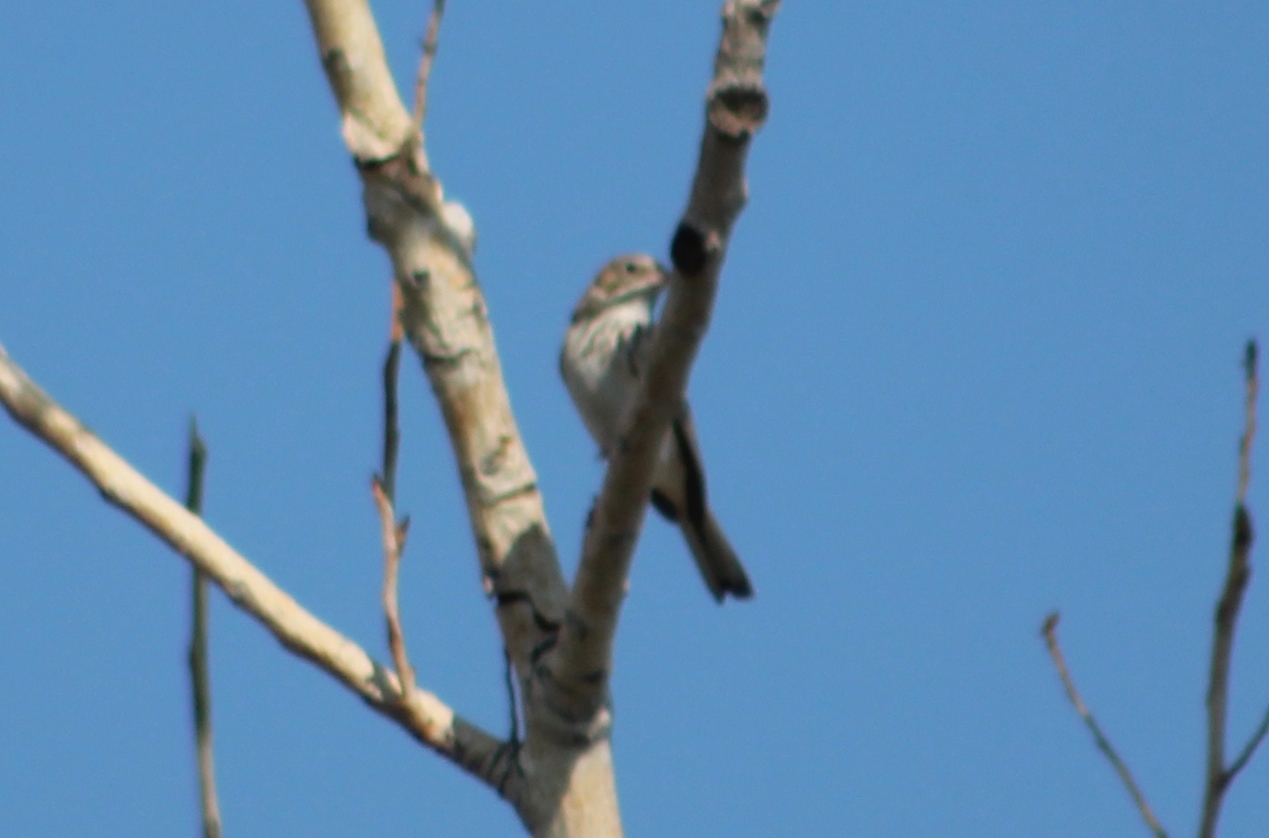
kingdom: Animalia
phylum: Chordata
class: Aves
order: Passeriformes
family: Passerellidae
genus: Pooecetes
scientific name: Pooecetes gramineus
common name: Vesper sparrow
